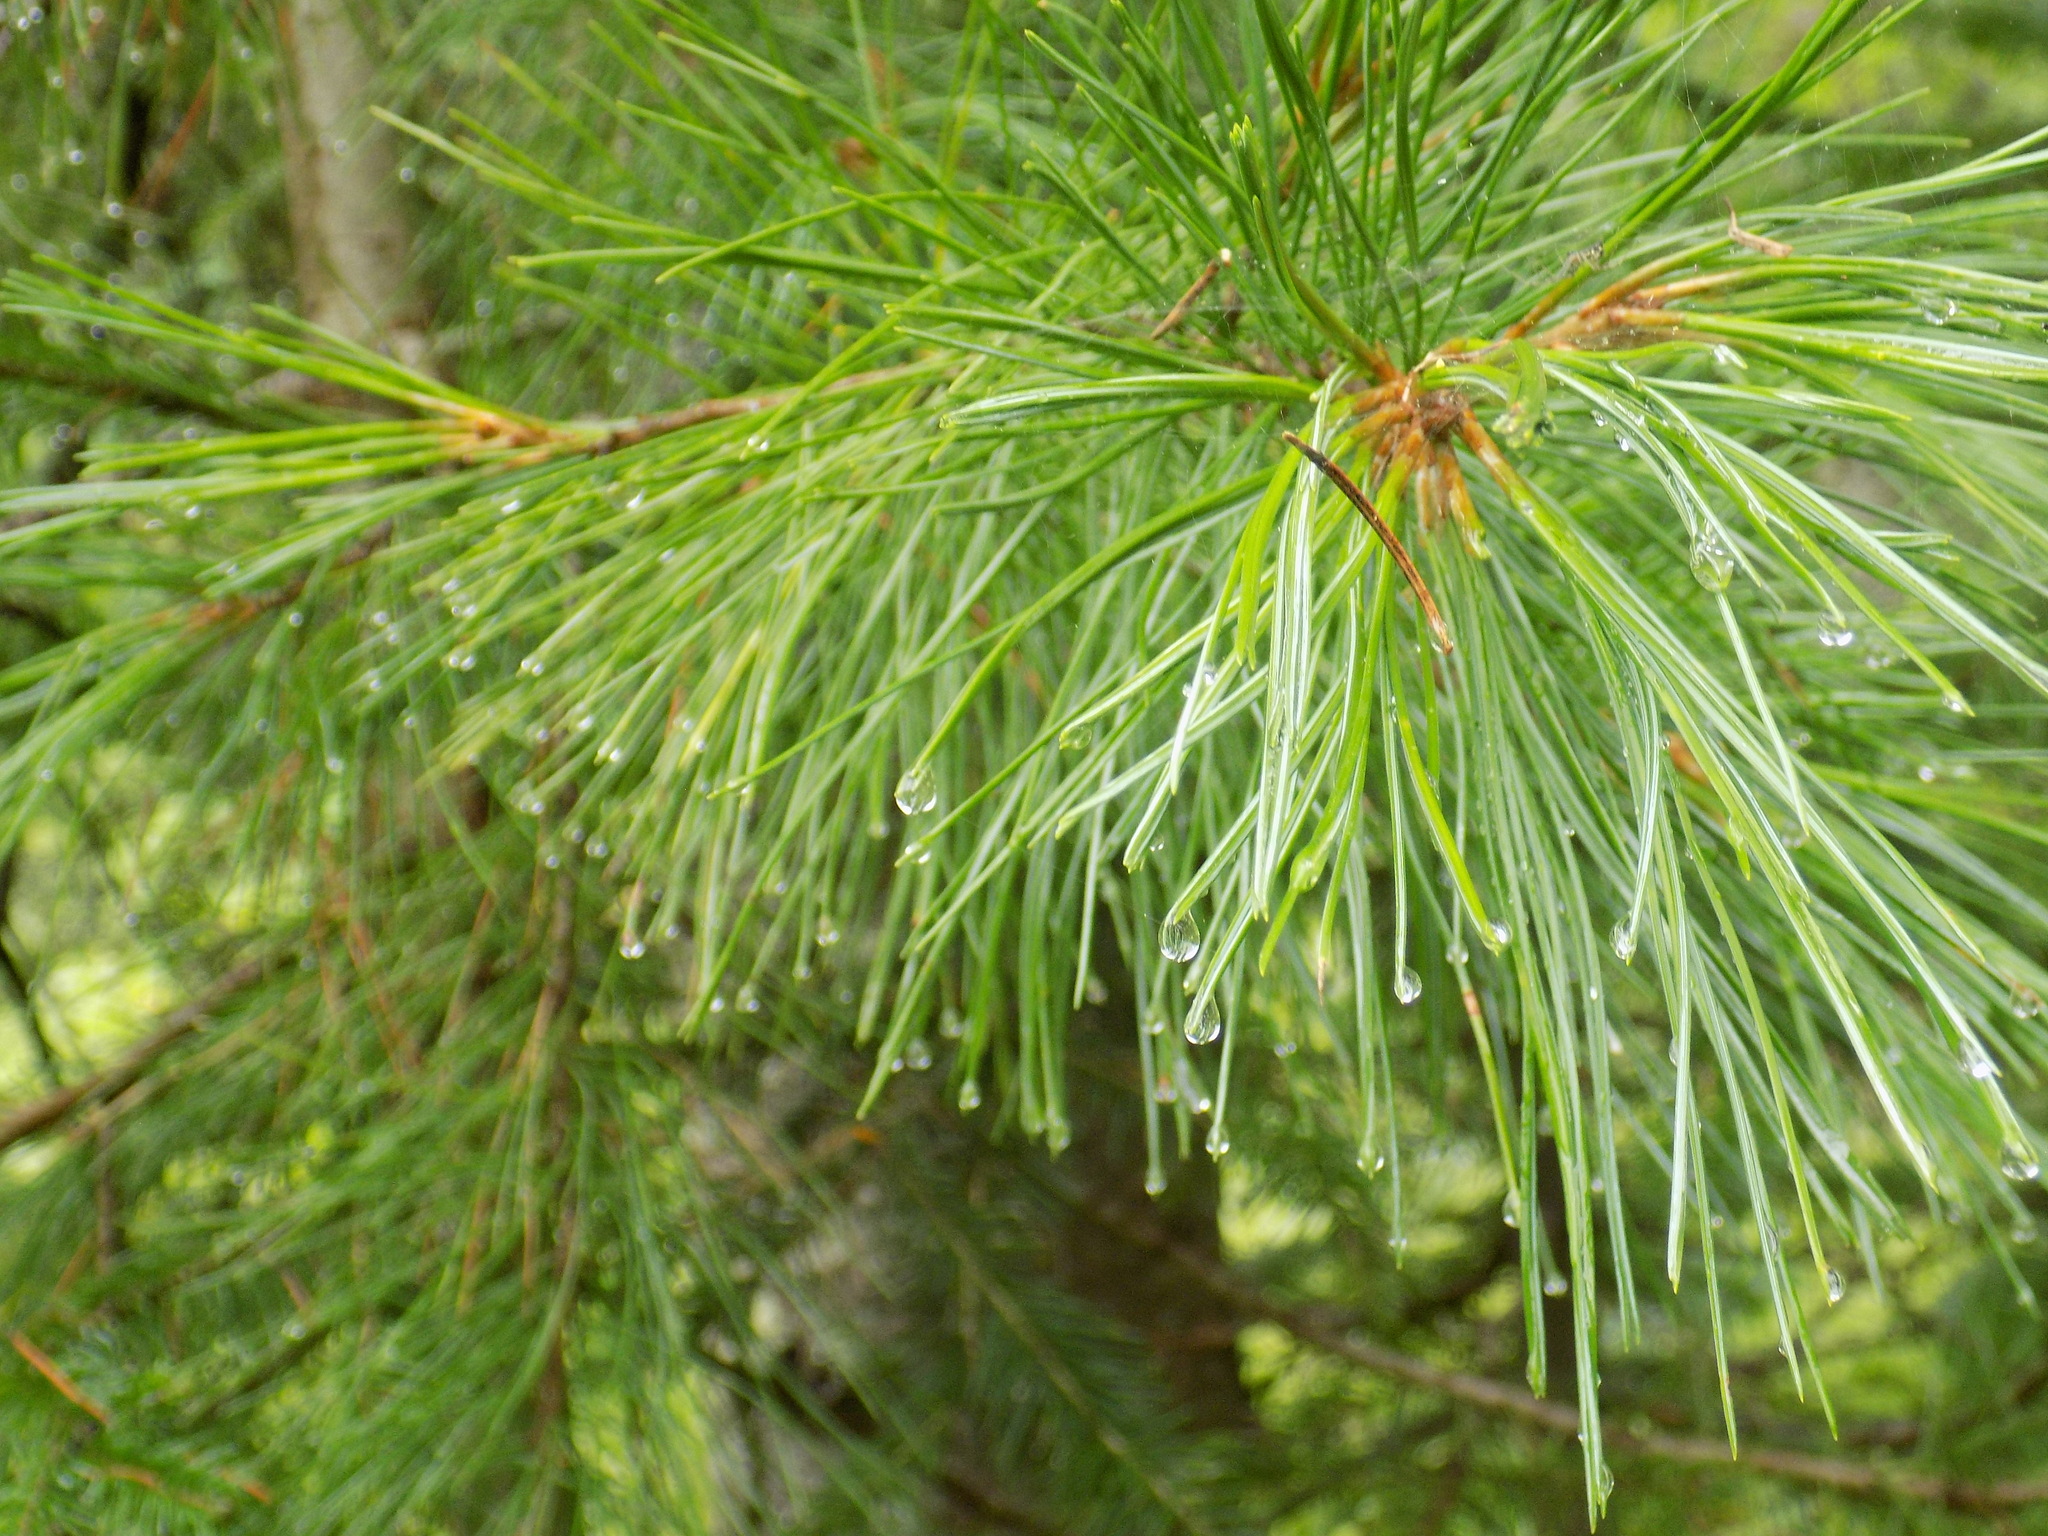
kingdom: Plantae
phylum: Tracheophyta
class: Pinopsida
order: Pinales
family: Pinaceae
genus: Pinus
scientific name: Pinus sibirica
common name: Siberian pine
